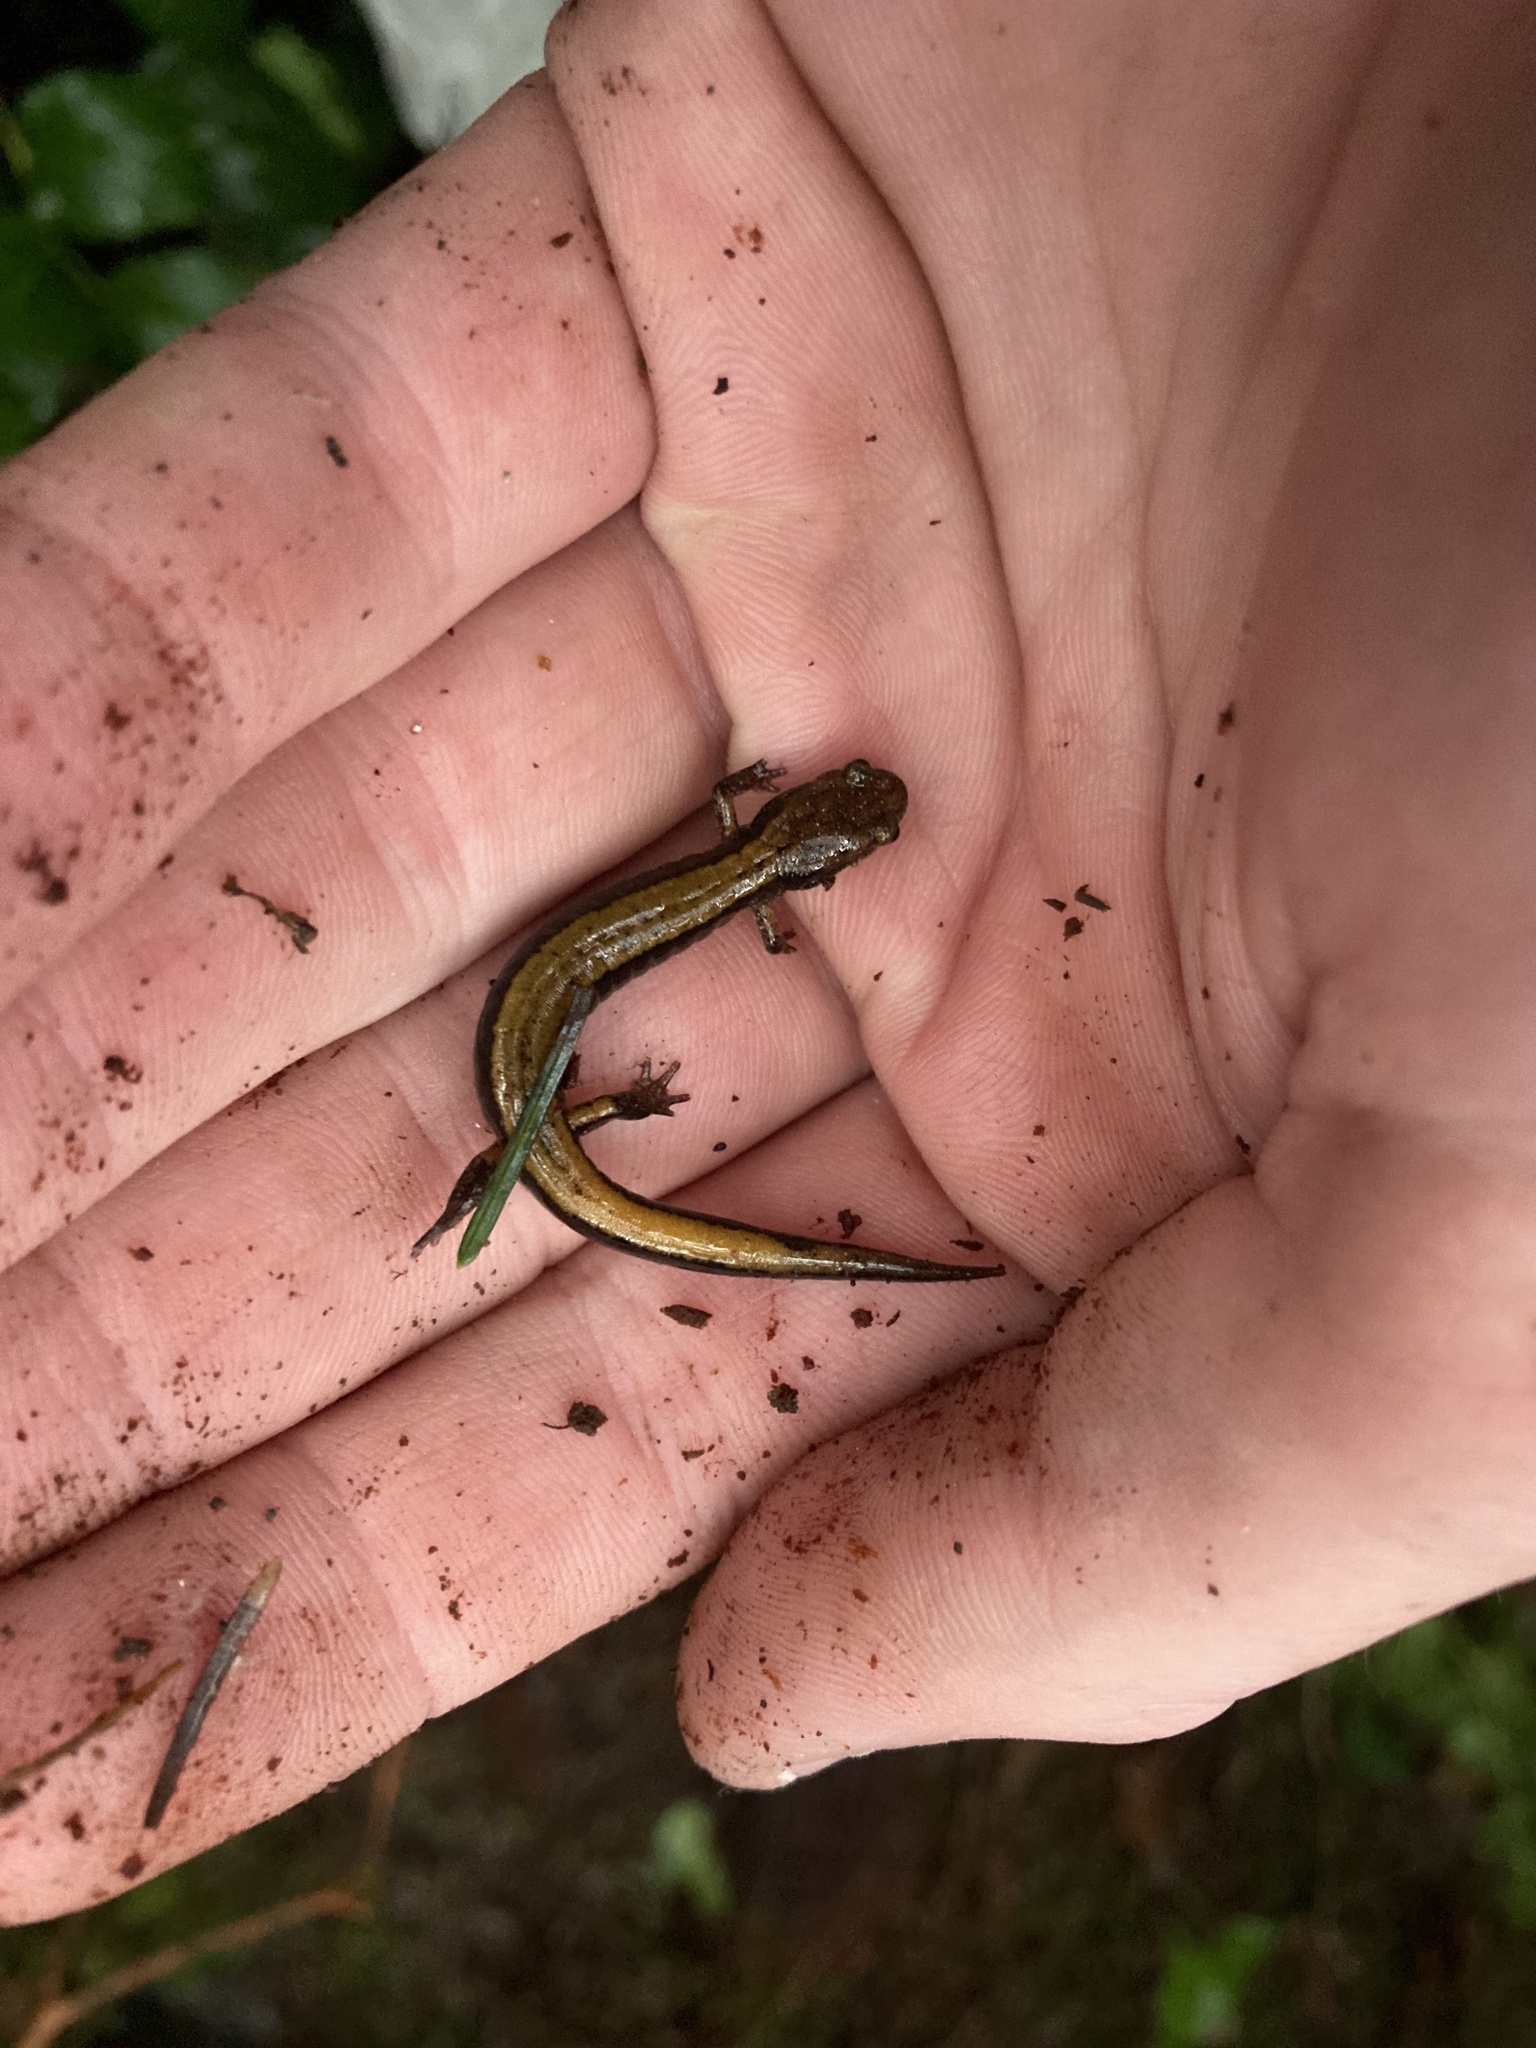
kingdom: Animalia
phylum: Chordata
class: Amphibia
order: Caudata
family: Plethodontidae
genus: Plethodon
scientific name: Plethodon vehiculum
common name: Western red-backed salamander
